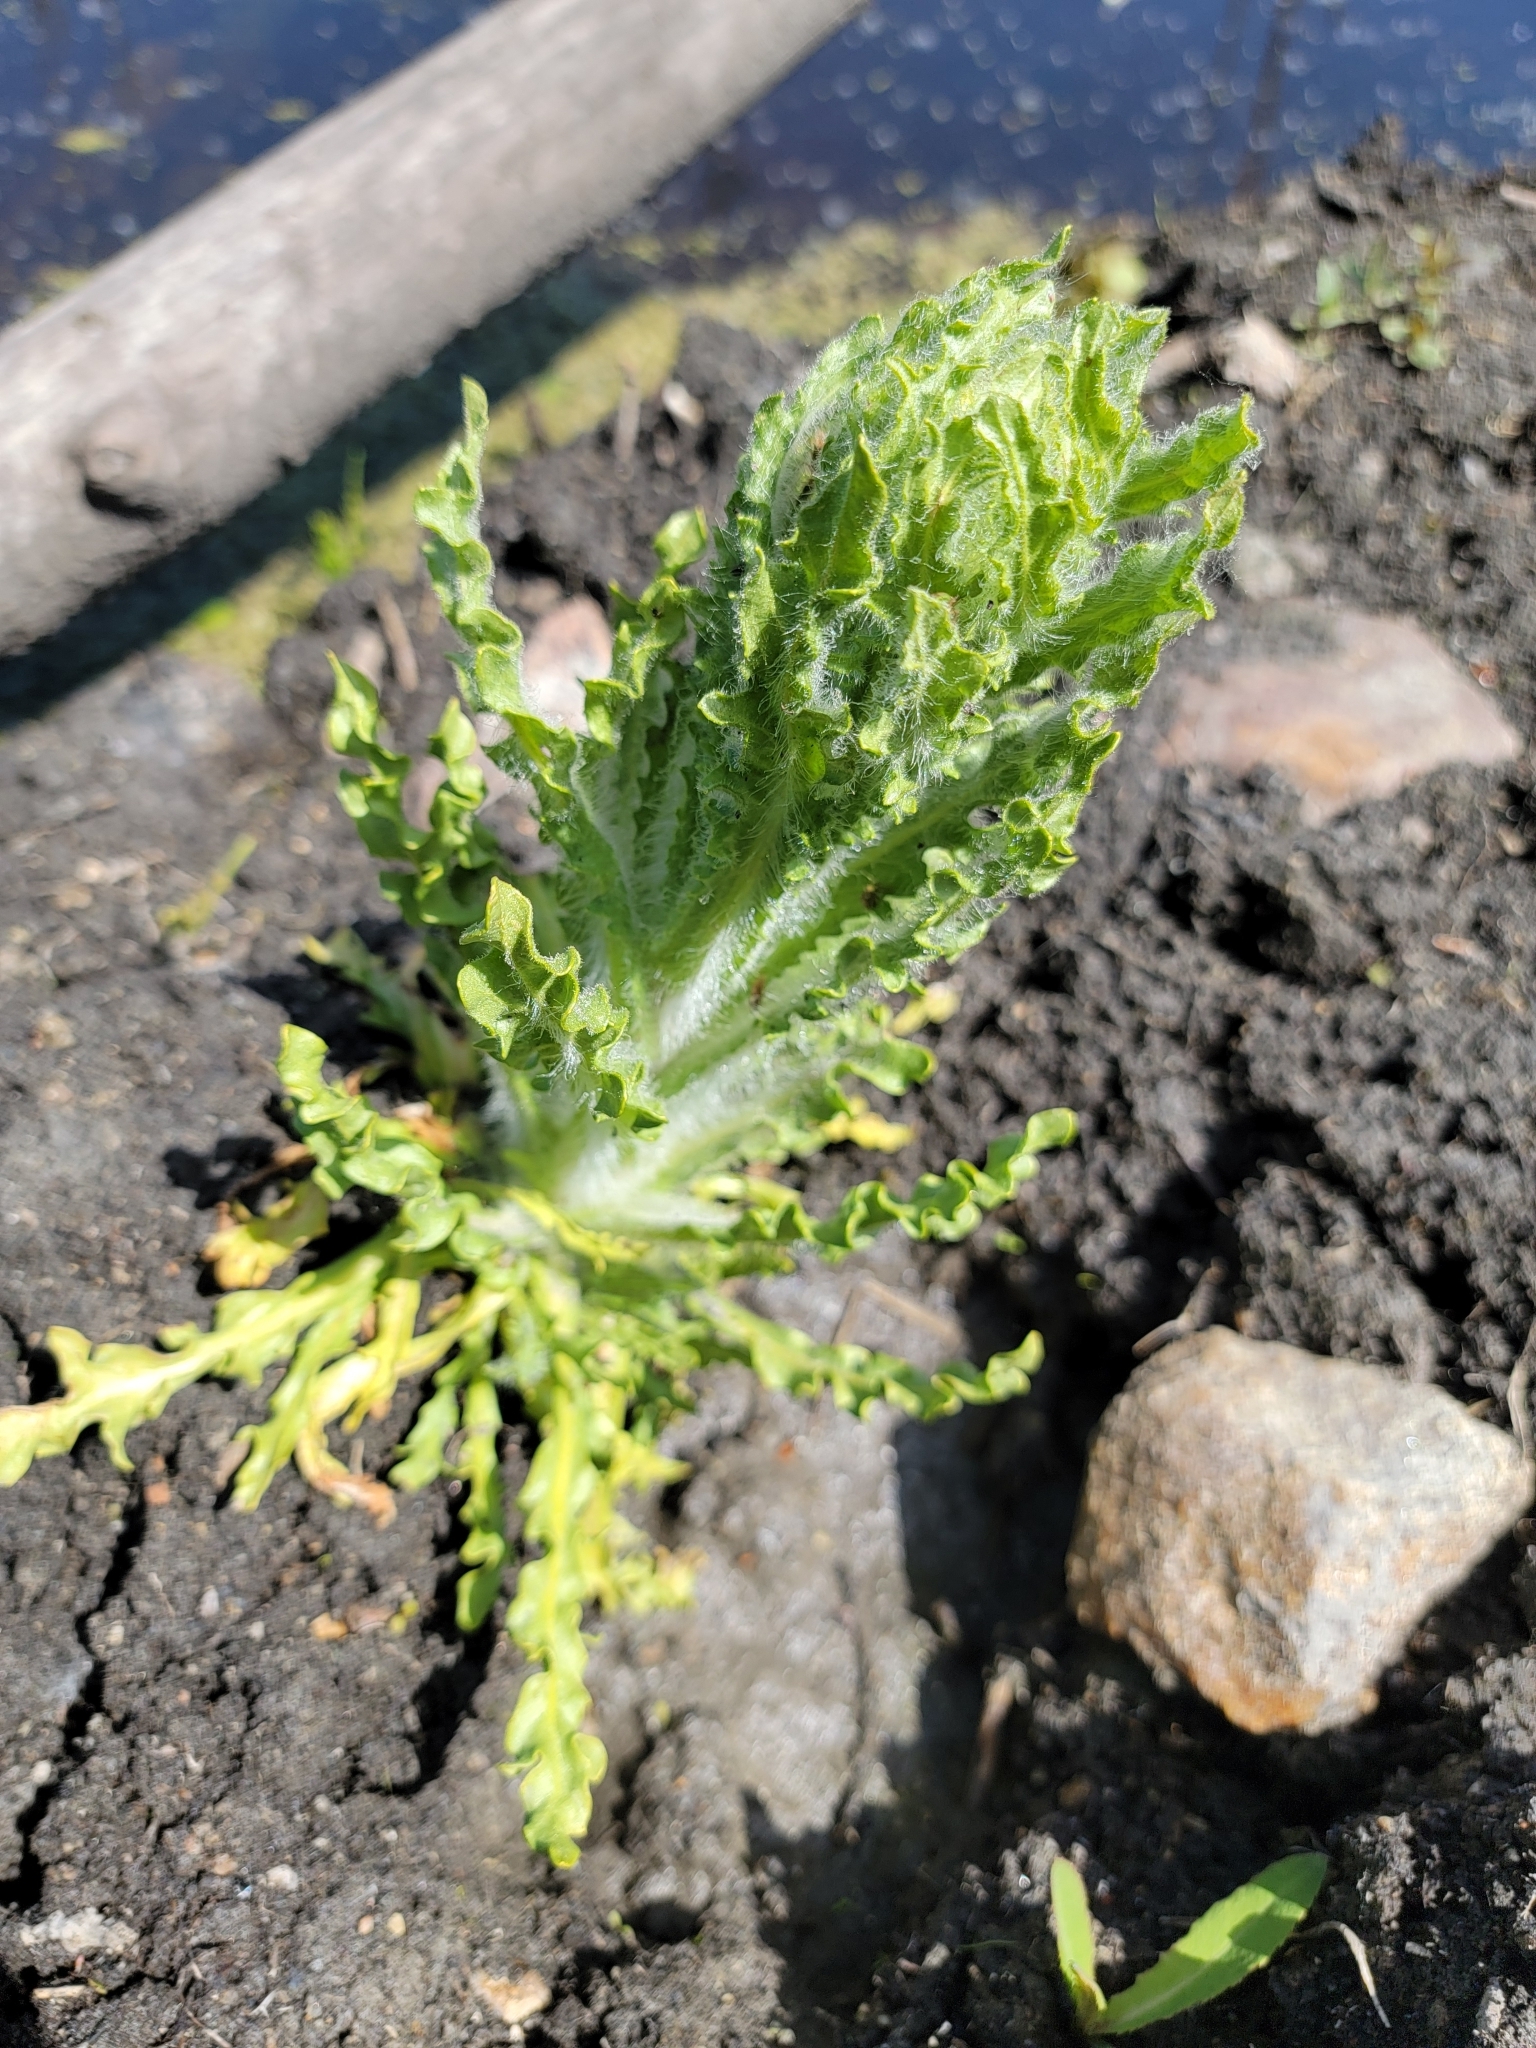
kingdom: Plantae
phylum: Tracheophyta
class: Magnoliopsida
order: Asterales
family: Asteraceae
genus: Tephroseris
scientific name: Tephroseris palustris
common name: Marsh fleawort
